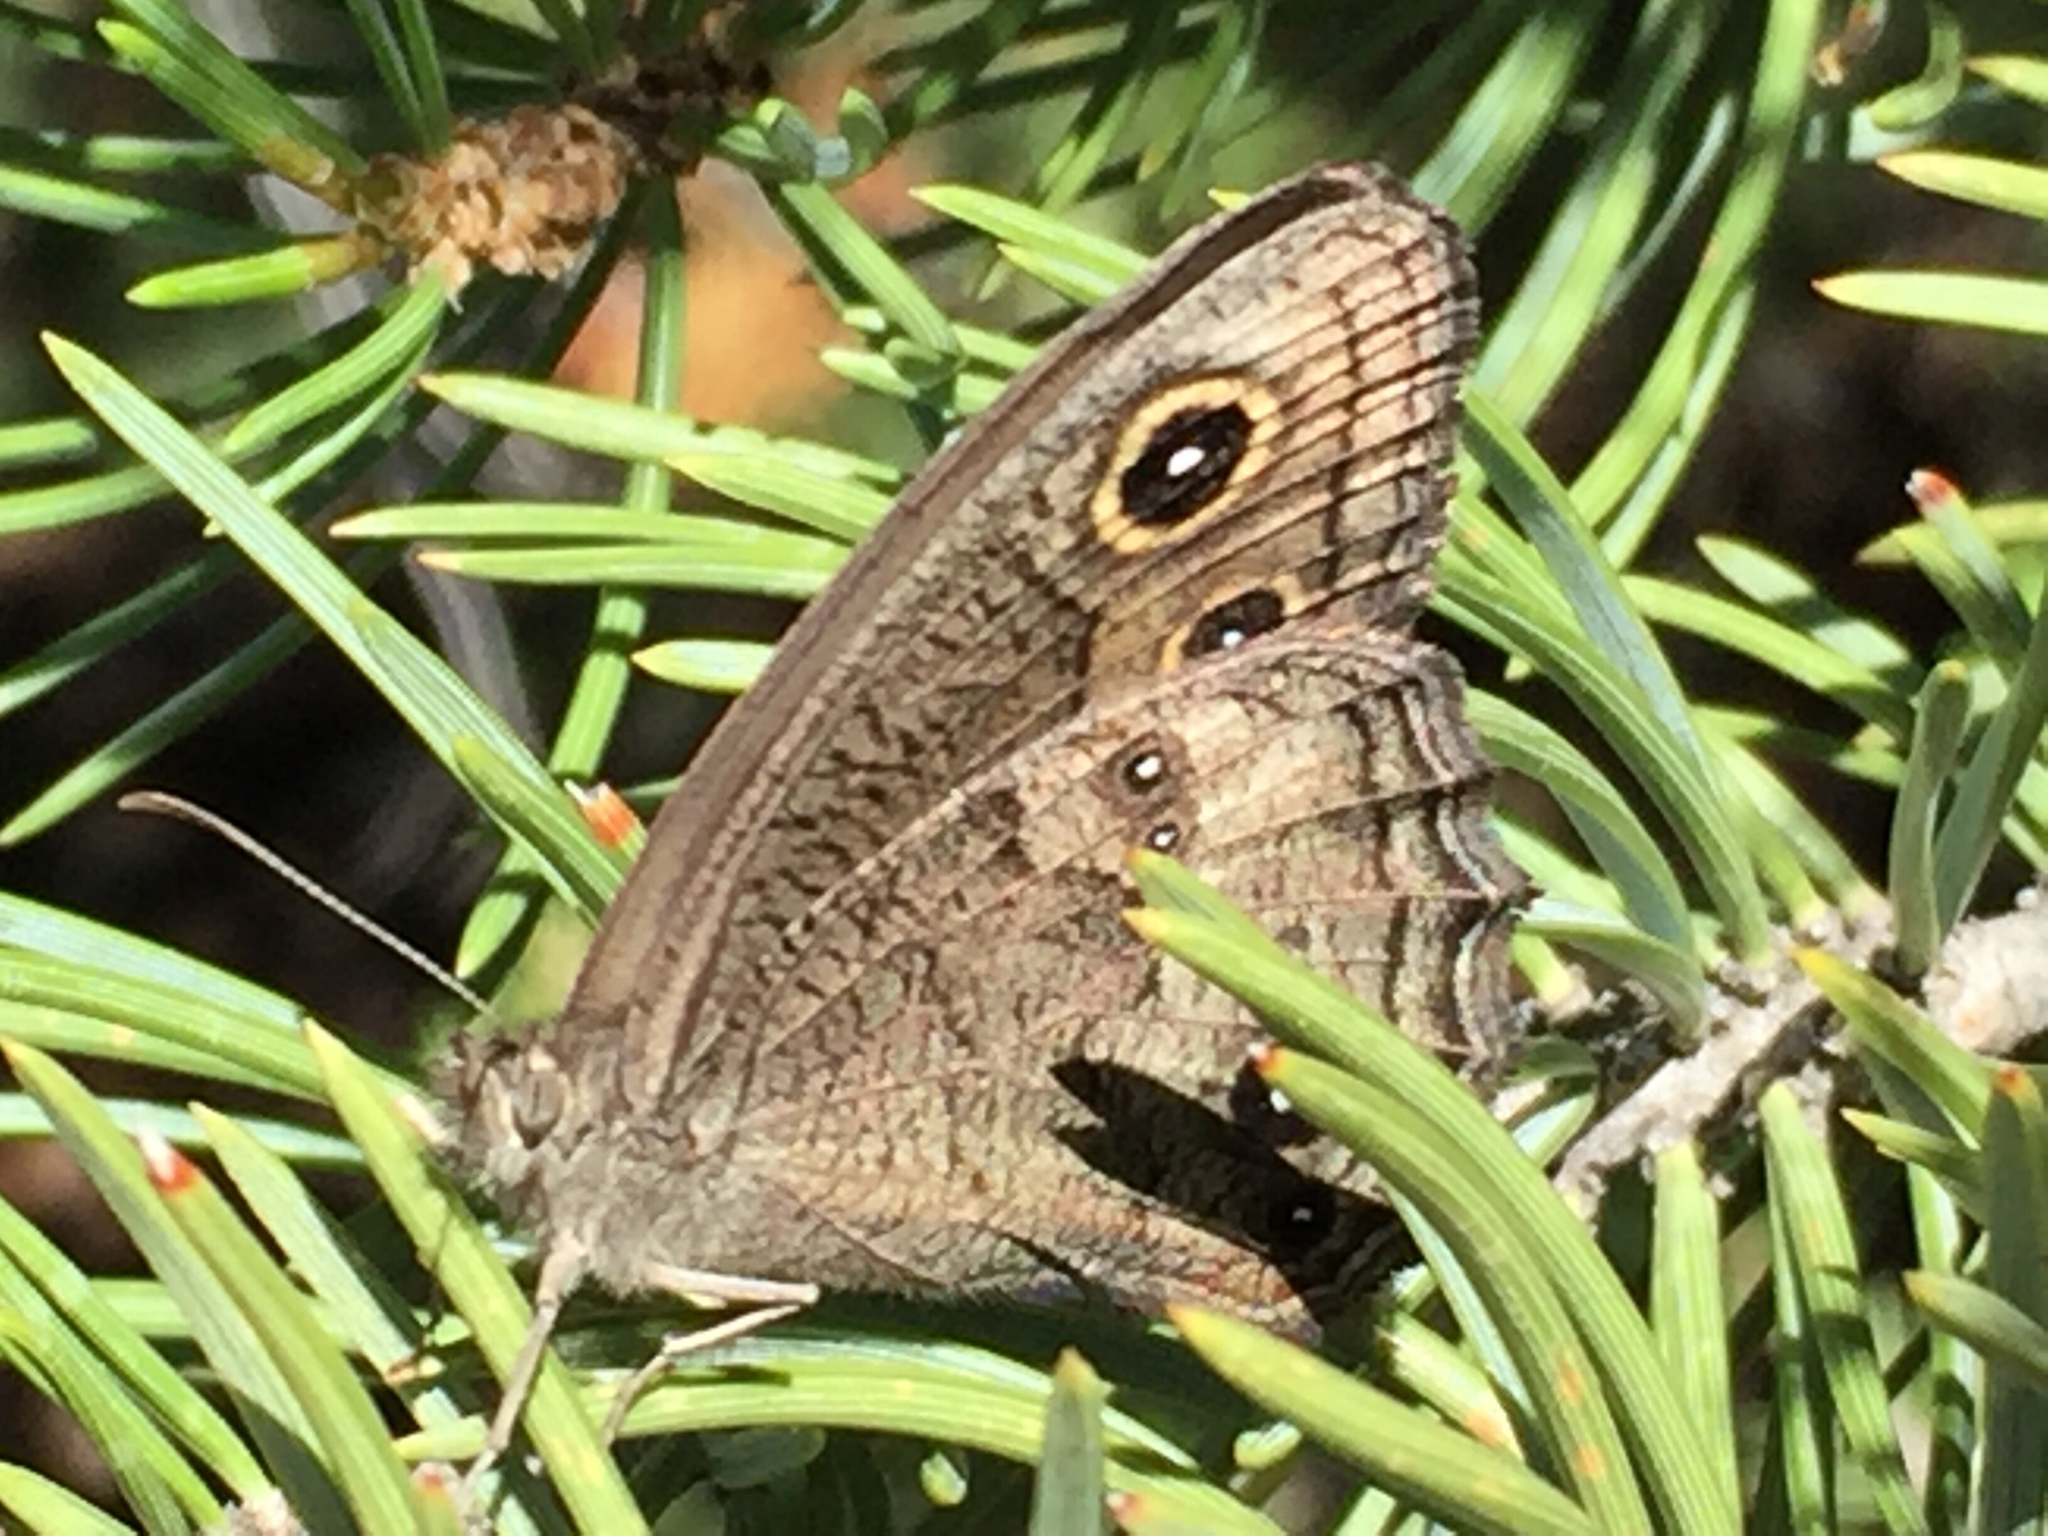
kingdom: Animalia
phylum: Arthropoda
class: Insecta
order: Lepidoptera
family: Nymphalidae
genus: Cercyonis
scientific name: Cercyonis sthenele
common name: Great basin wood-nymph
